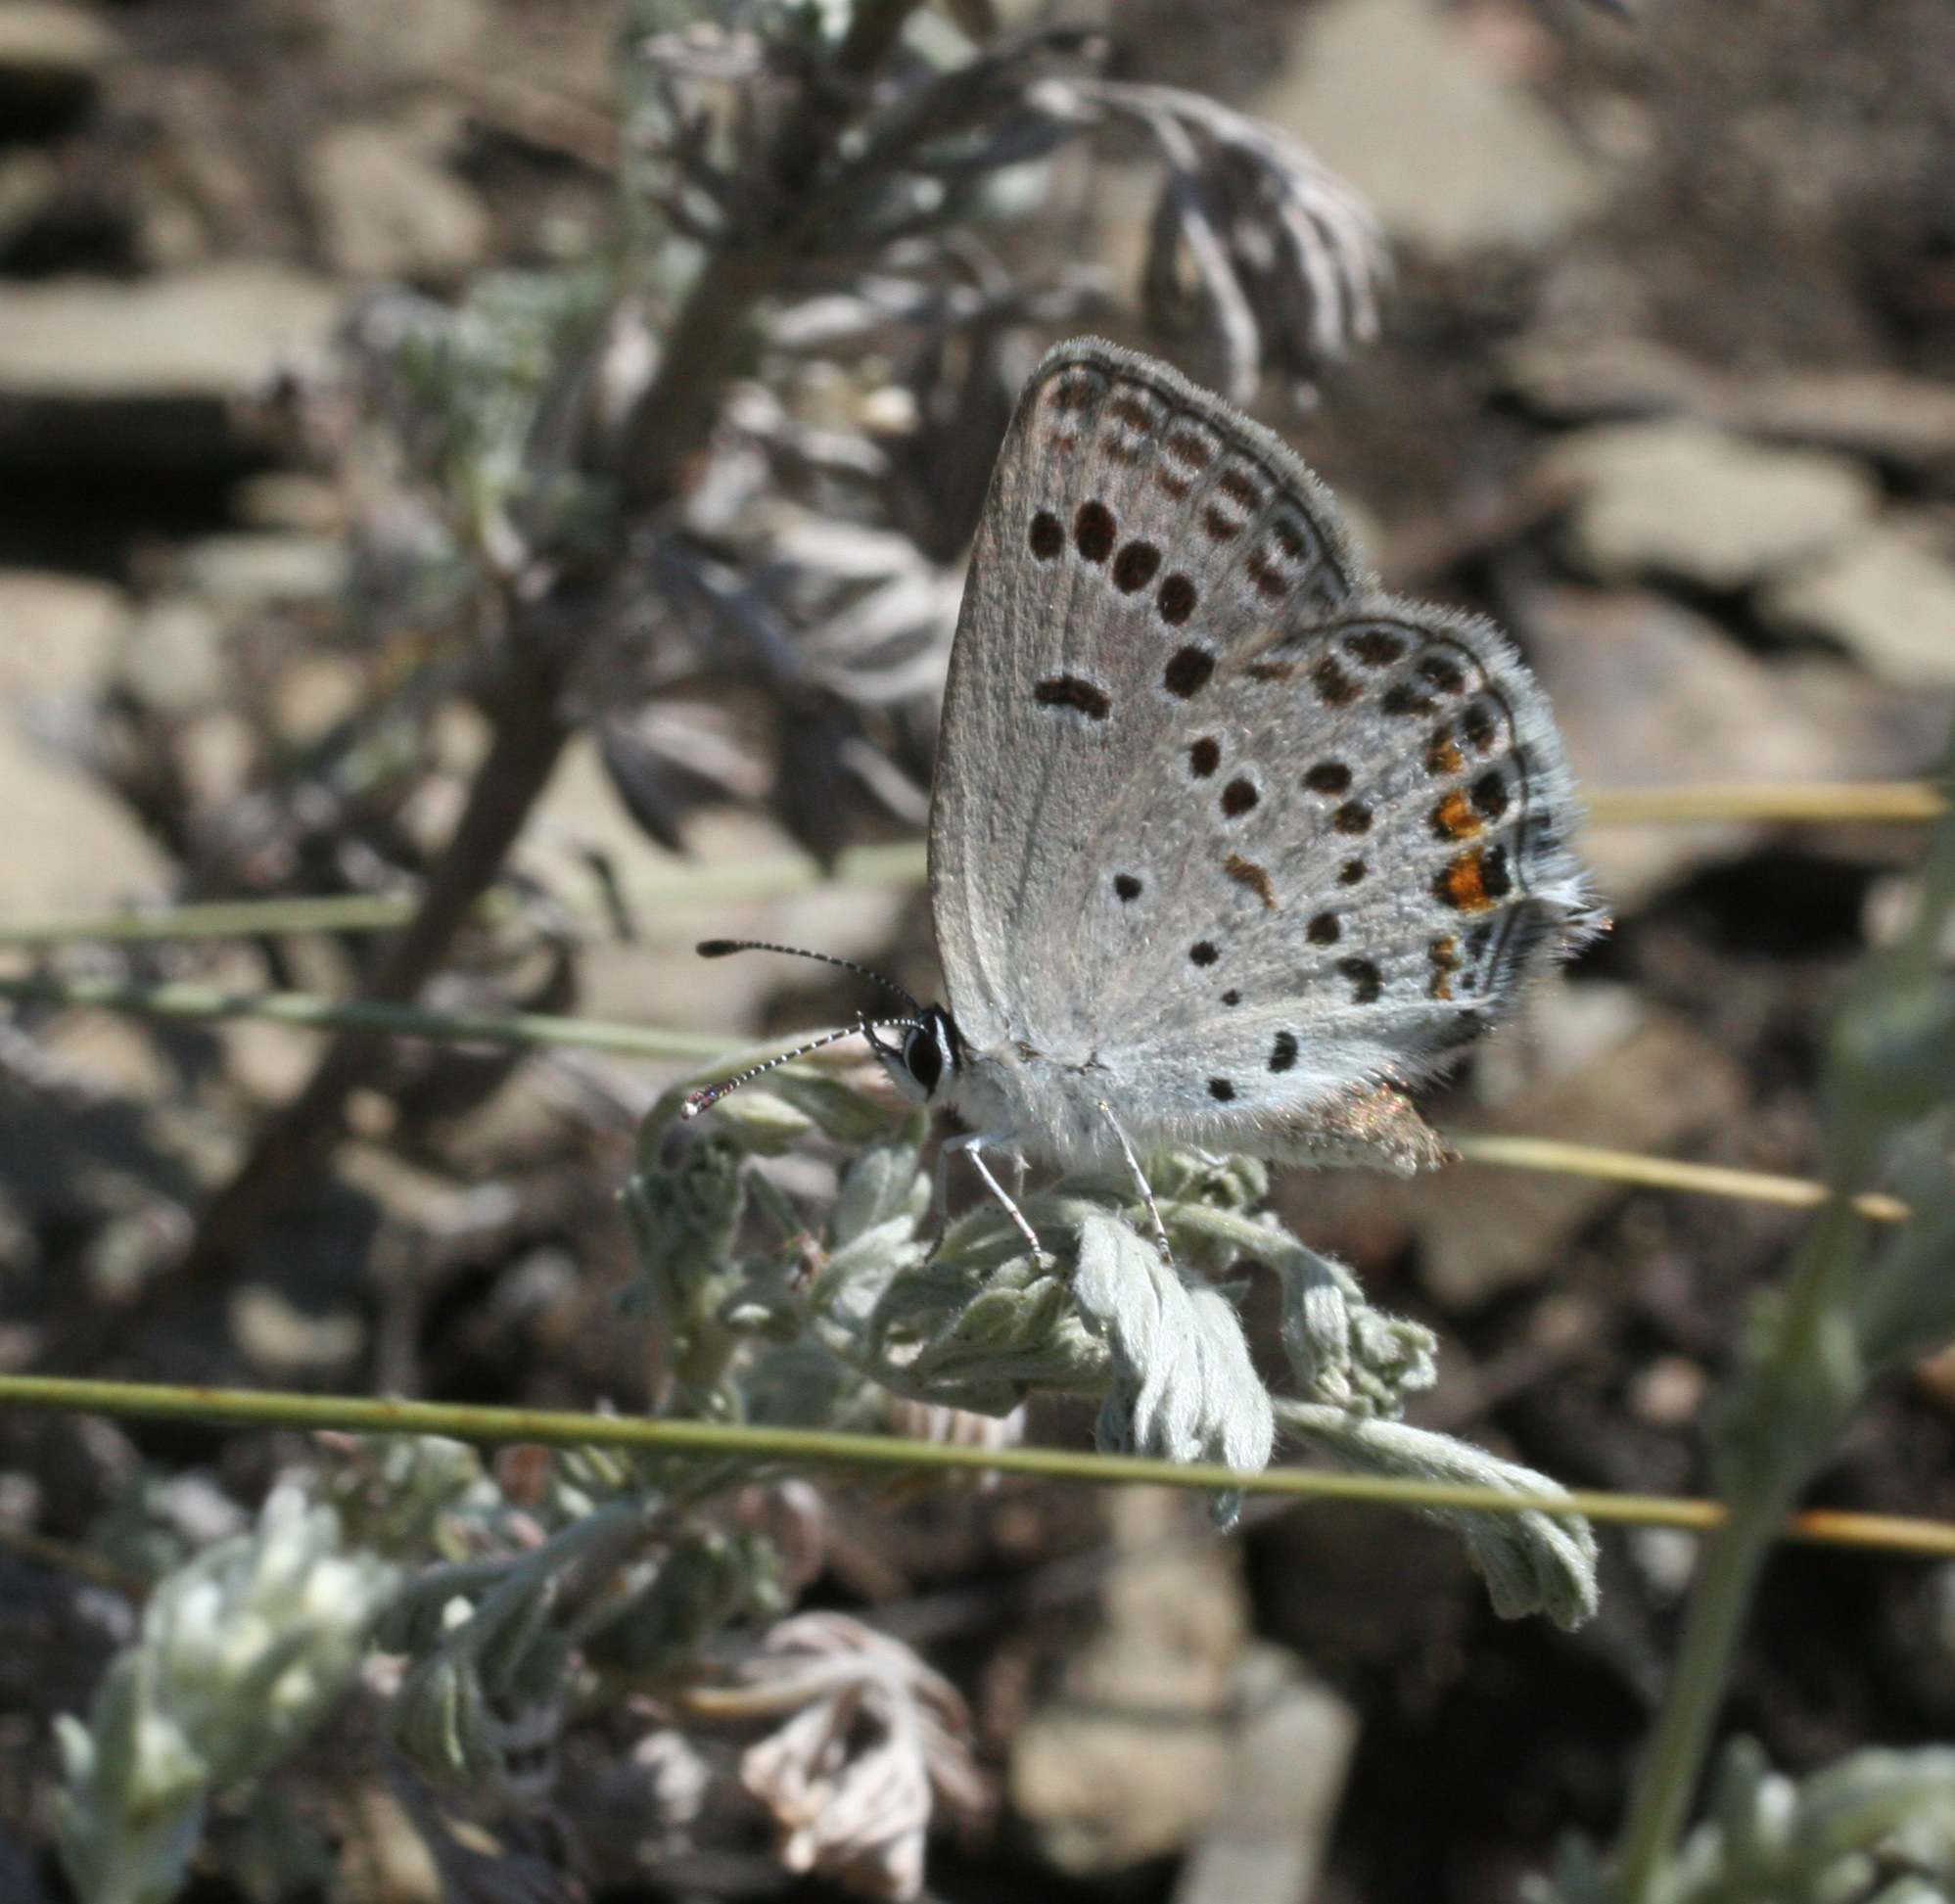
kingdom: Animalia
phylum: Arthropoda
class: Insecta
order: Lepidoptera
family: Lycaenidae
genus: Tongeia
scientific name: Tongeia fischeri
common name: Fischer's blue
